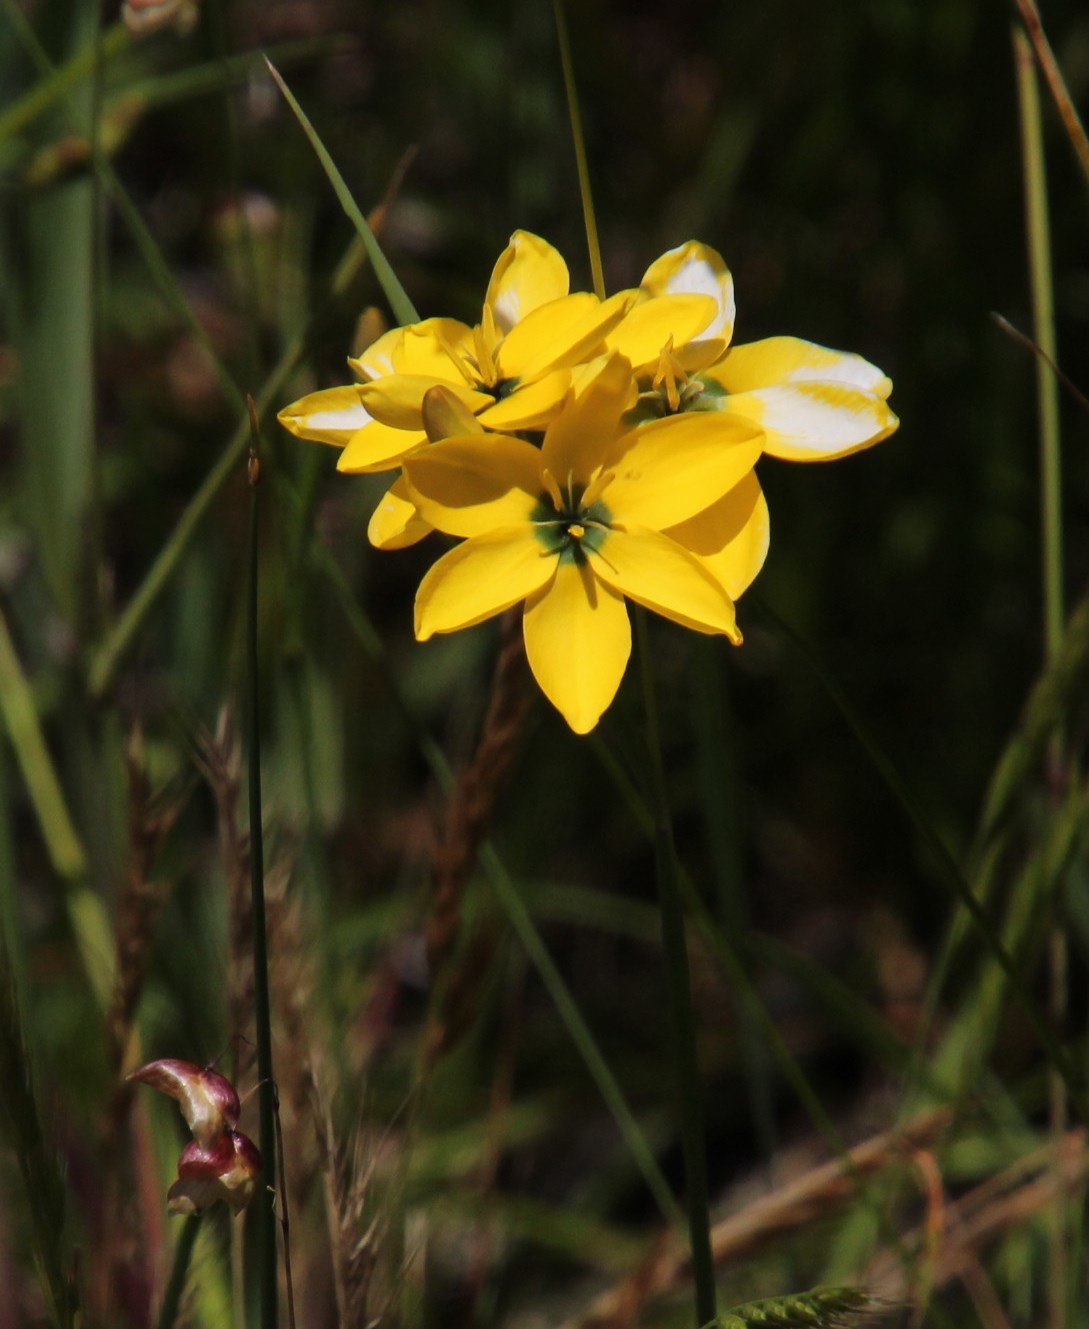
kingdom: Plantae
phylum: Tracheophyta
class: Liliopsida
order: Asparagales
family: Iridaceae
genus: Ixia
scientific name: Ixia dubia
